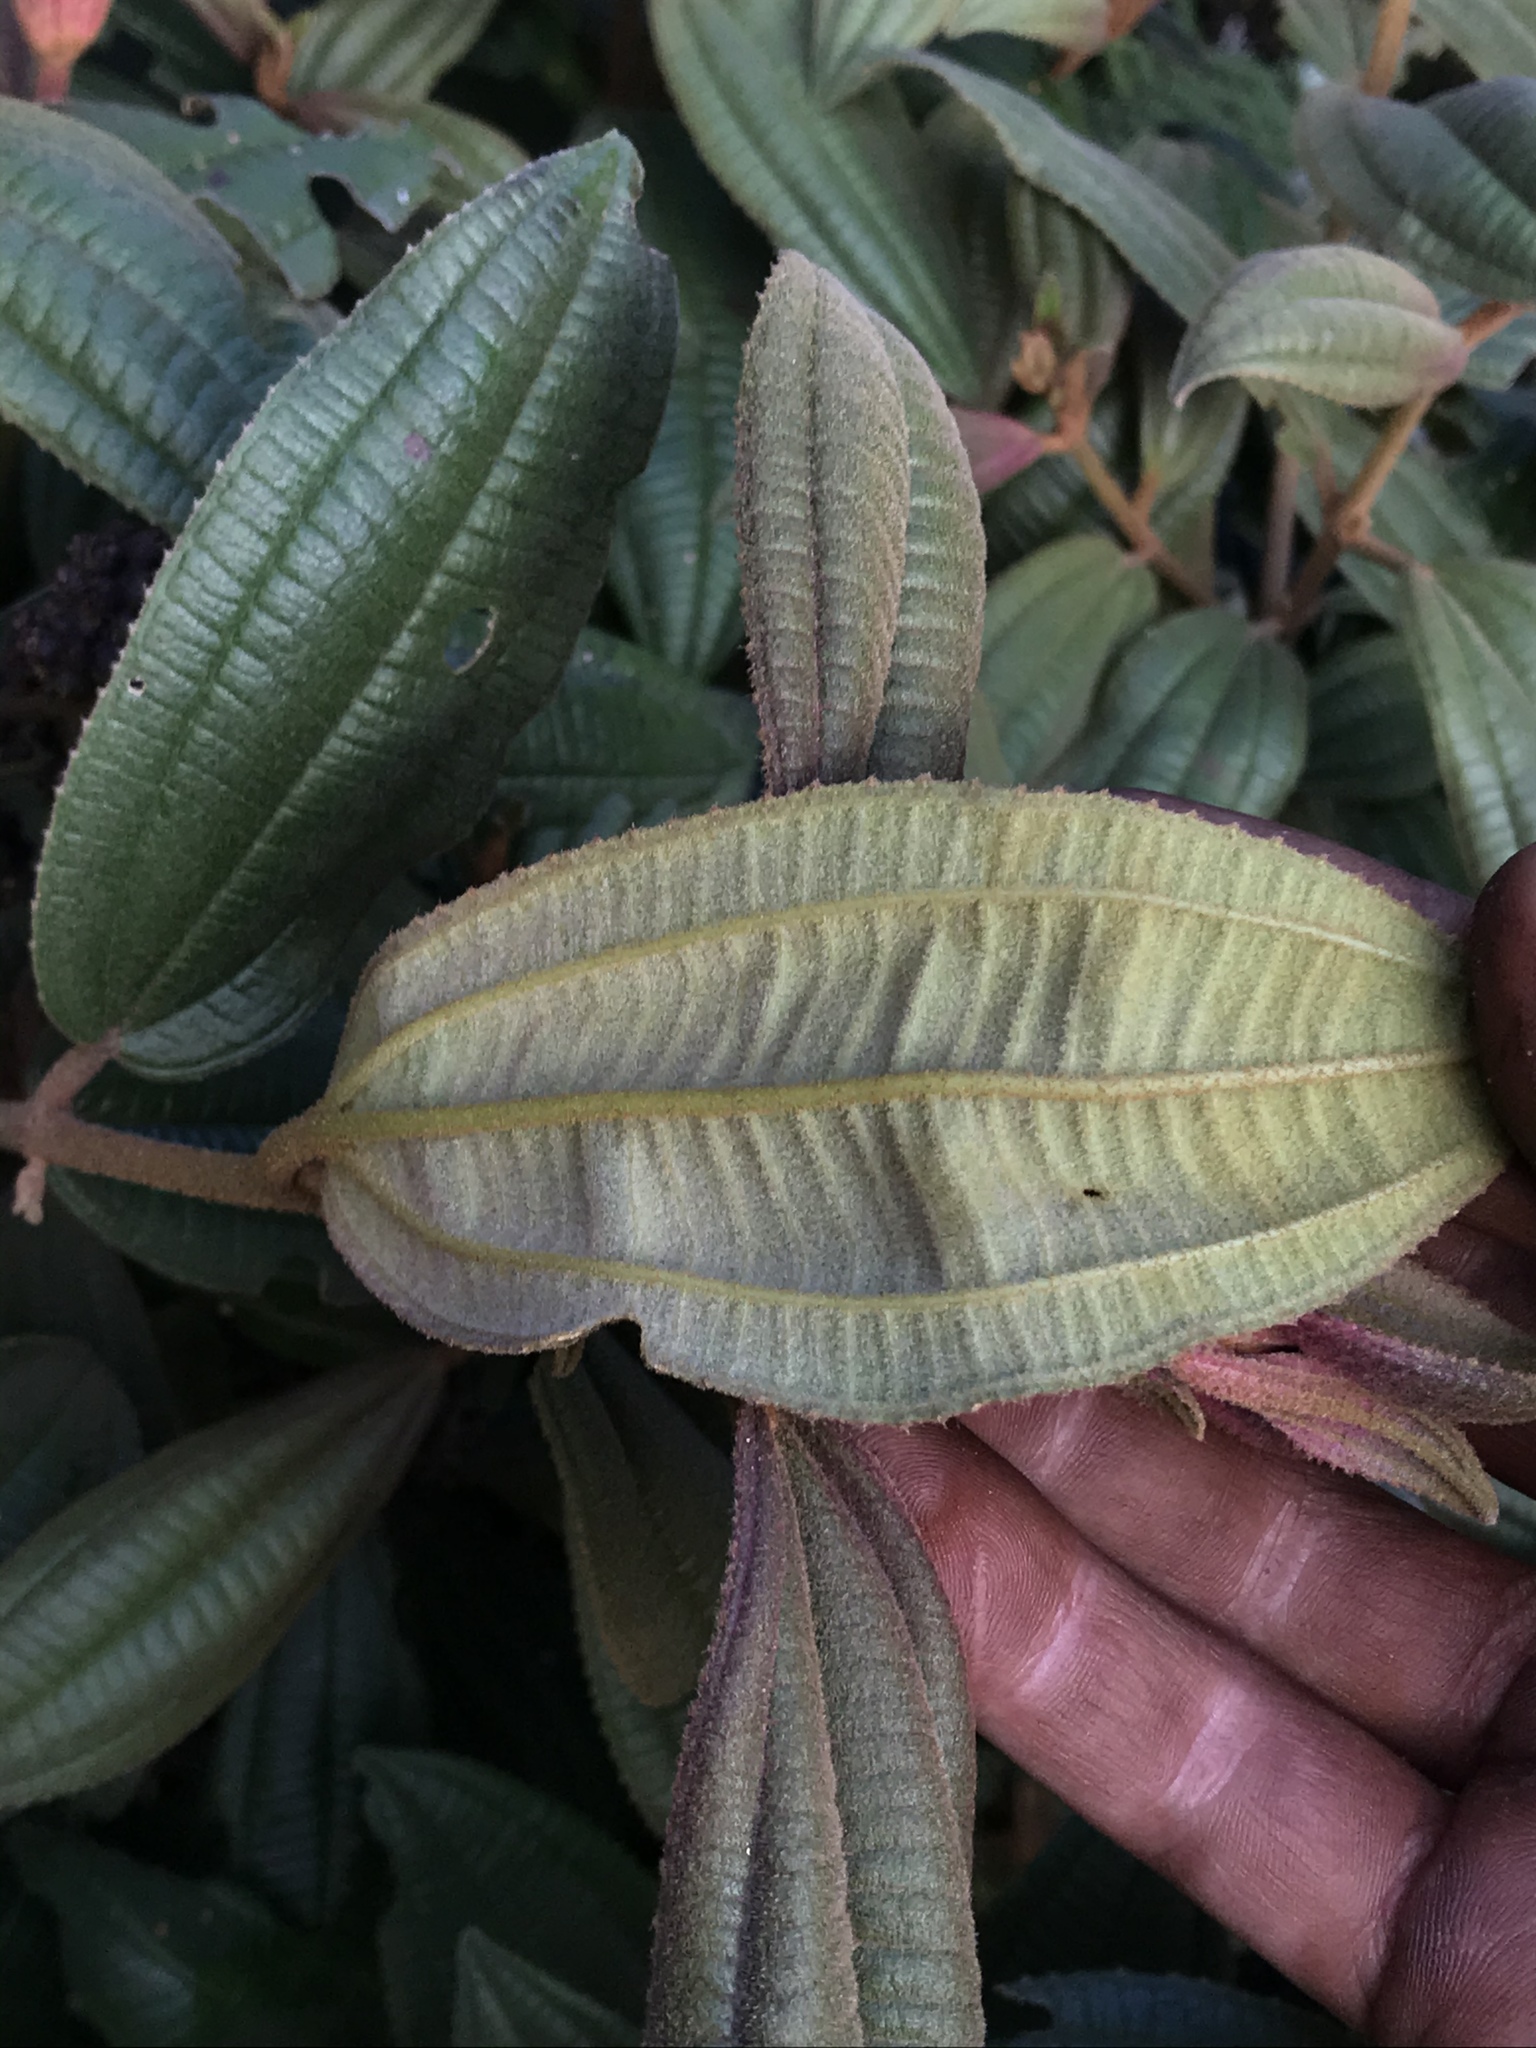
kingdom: Plantae
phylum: Tracheophyta
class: Magnoliopsida
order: Myrtales
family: Melastomataceae
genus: Miconia
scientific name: Miconia cataractae
